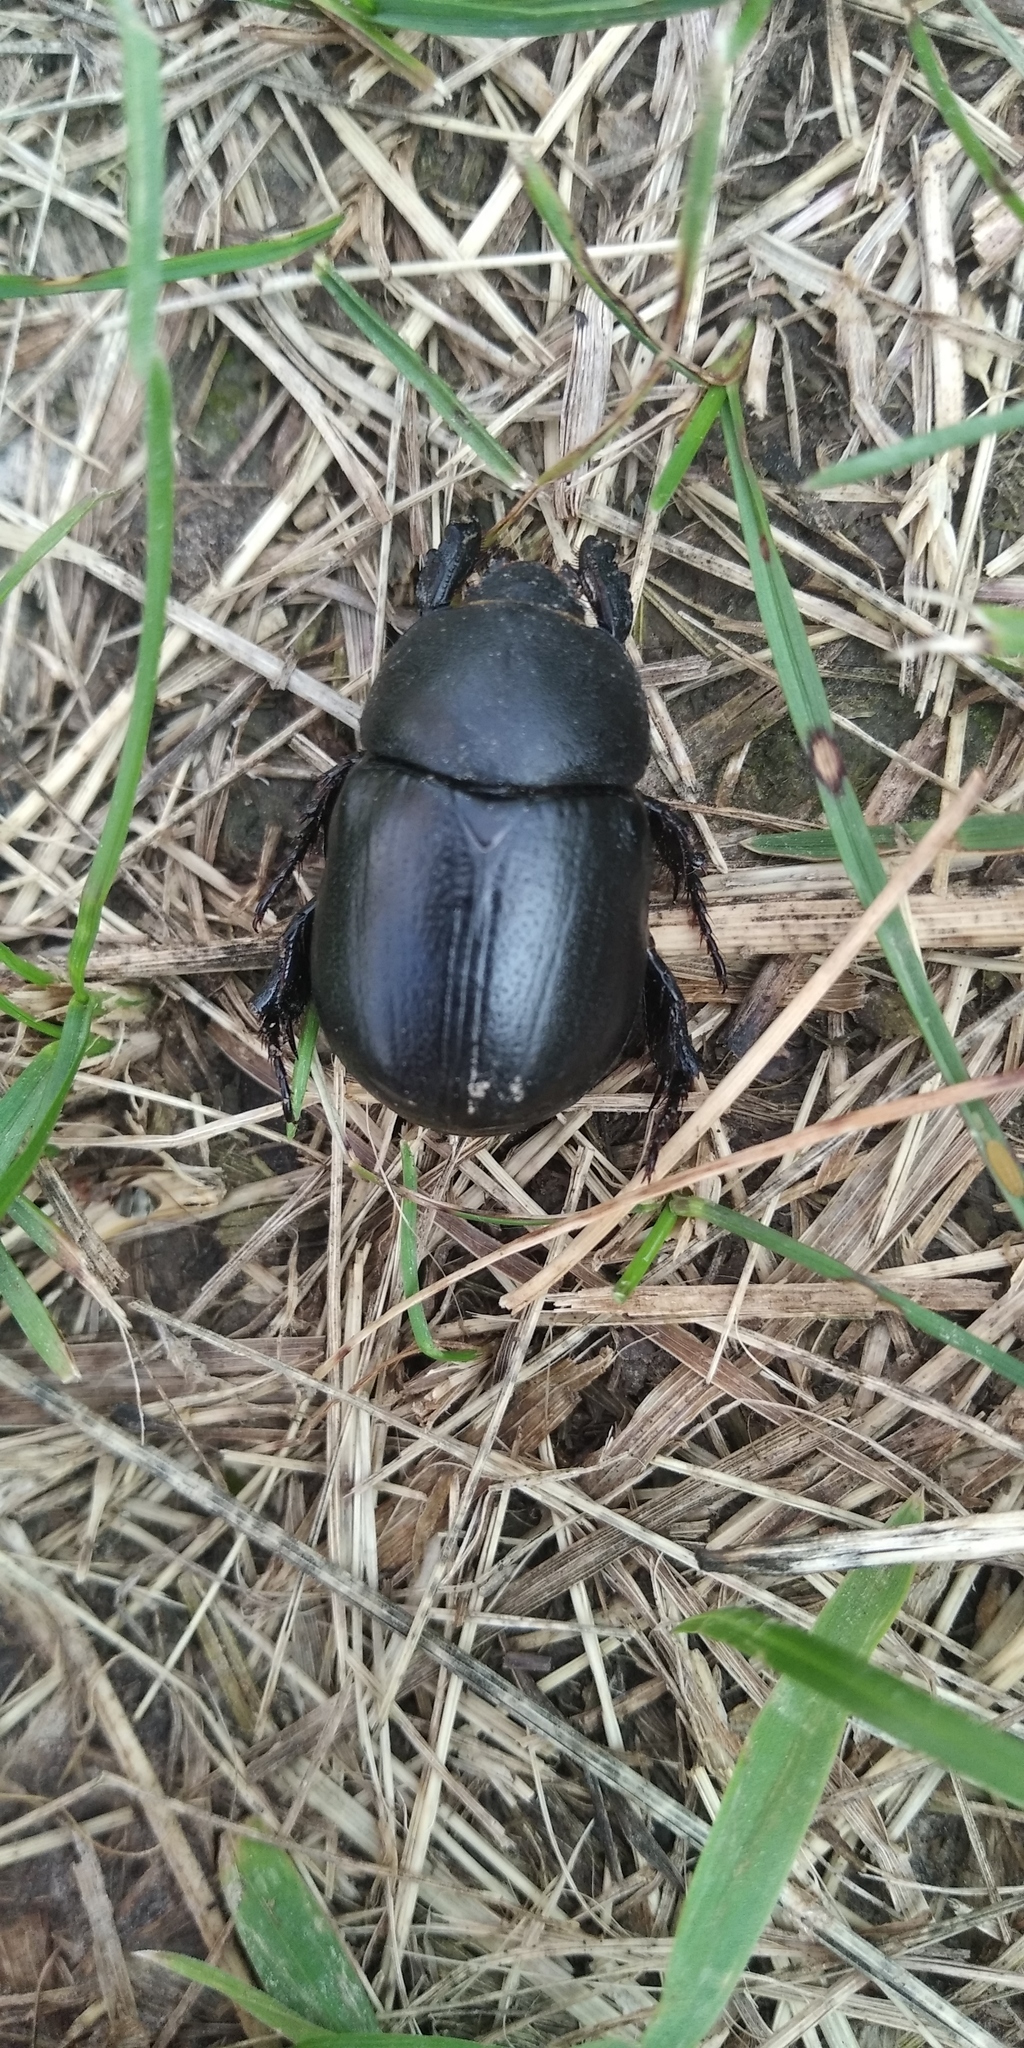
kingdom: Animalia
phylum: Arthropoda
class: Insecta
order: Coleoptera
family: Scarabaeidae
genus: Pentodon
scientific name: Pentodon idiota
